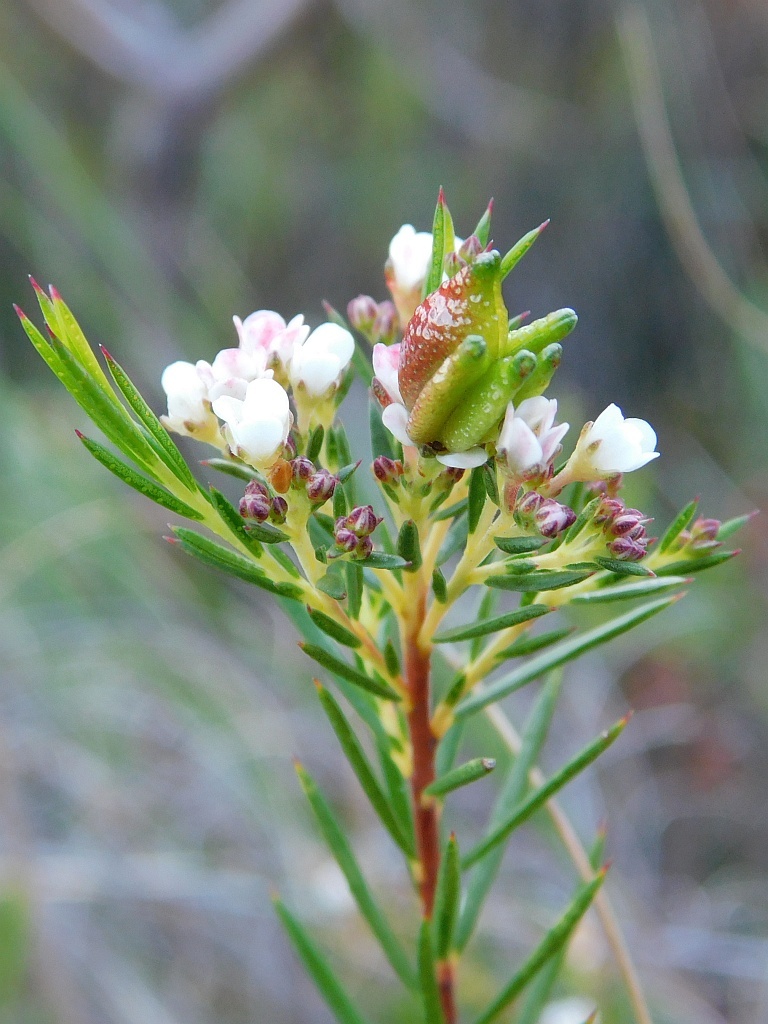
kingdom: Plantae
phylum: Tracheophyta
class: Magnoliopsida
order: Sapindales
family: Rutaceae
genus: Diosma
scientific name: Diosma hirsuta
